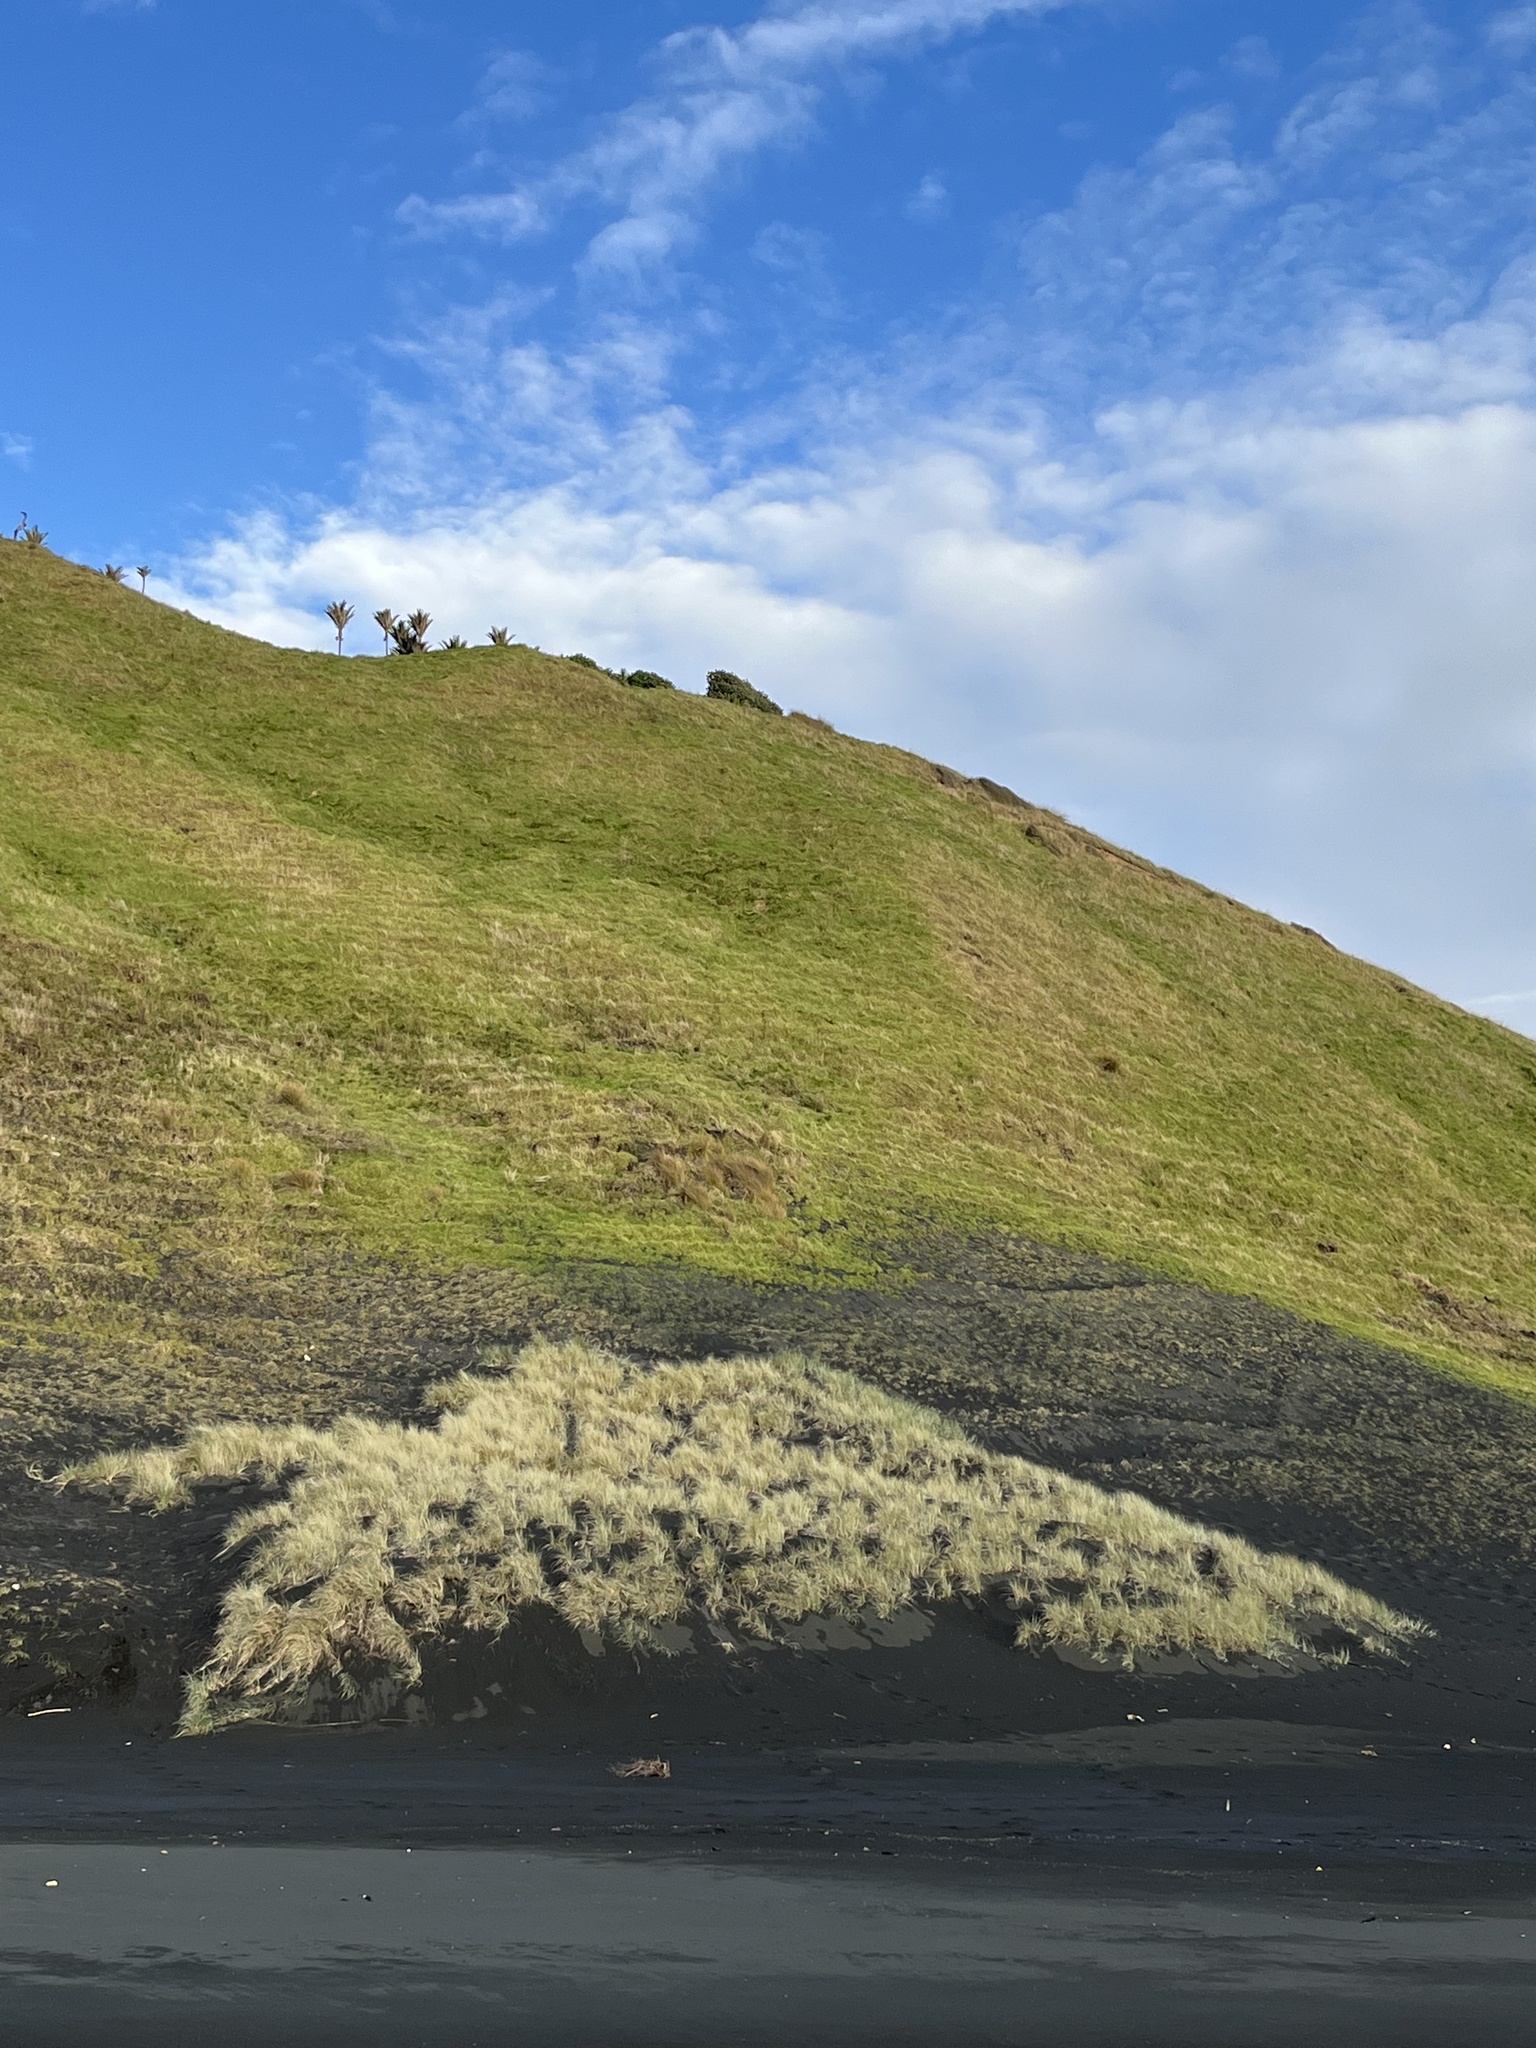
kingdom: Plantae
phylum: Tracheophyta
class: Liliopsida
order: Poales
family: Poaceae
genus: Spinifex
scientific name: Spinifex sericeus
